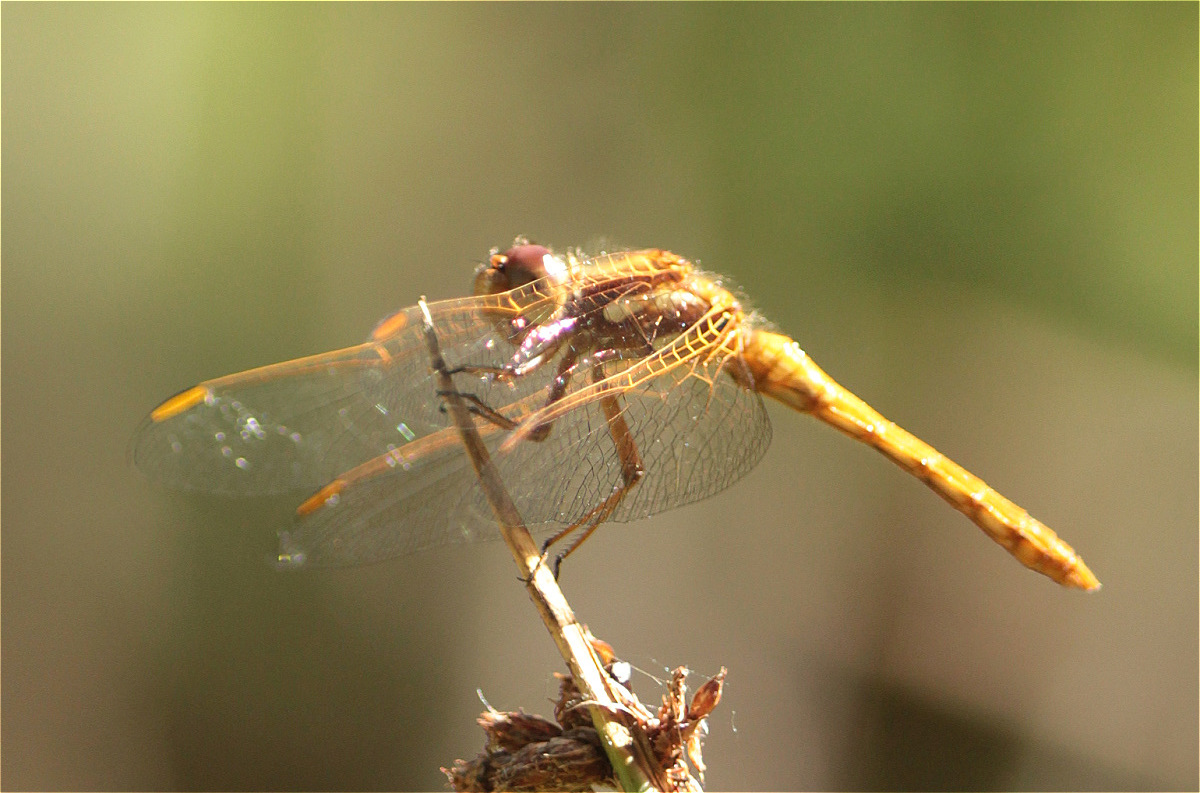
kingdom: Animalia
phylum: Arthropoda
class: Insecta
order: Odonata
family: Libellulidae
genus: Sympetrum
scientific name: Sympetrum gilvum
